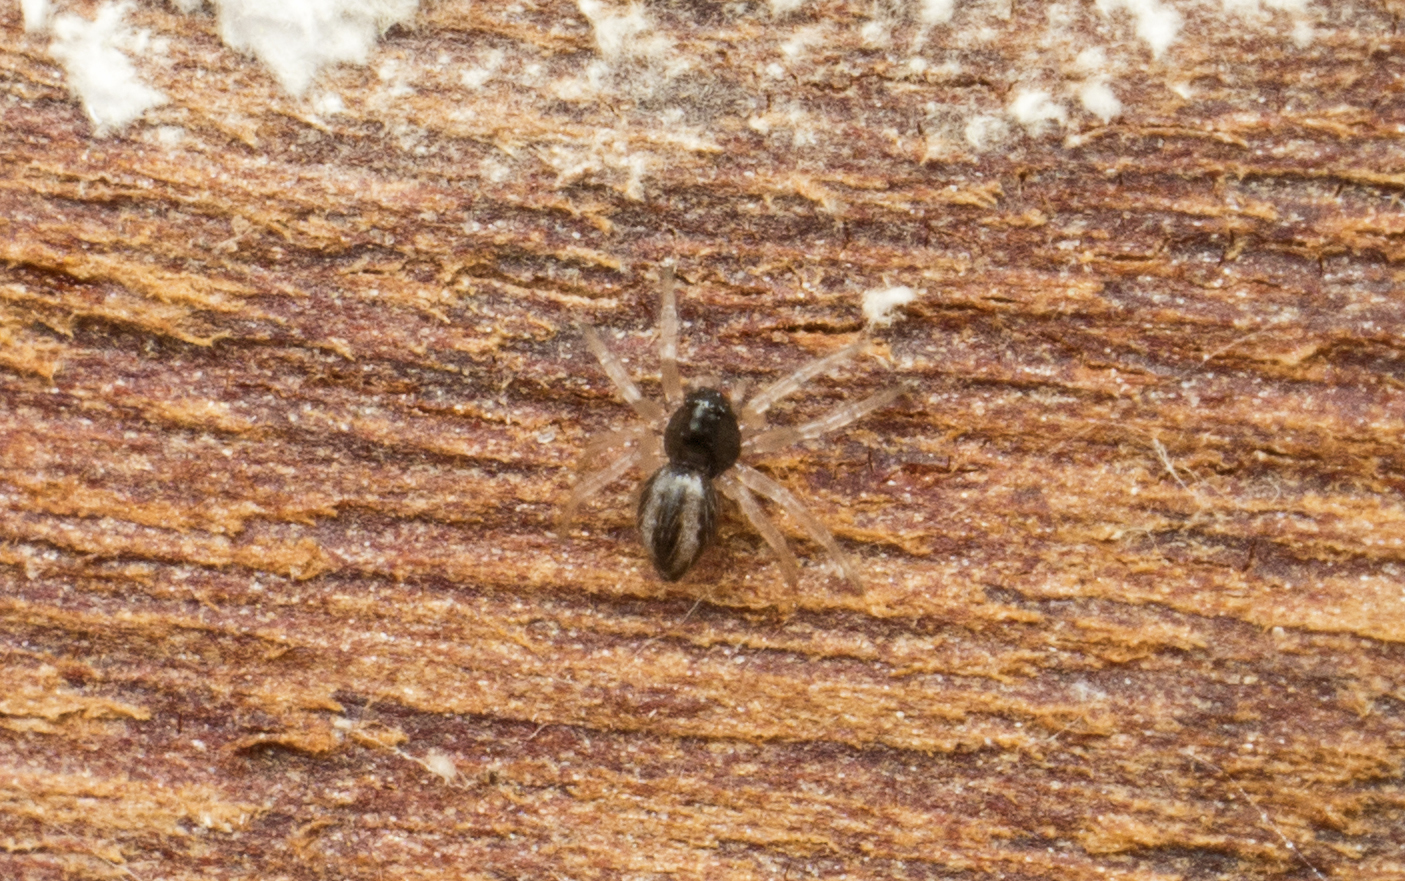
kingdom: Animalia
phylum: Arthropoda
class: Arachnida
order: Araneae
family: Theridiidae
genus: Euryopis
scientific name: Euryopis umbilicata
